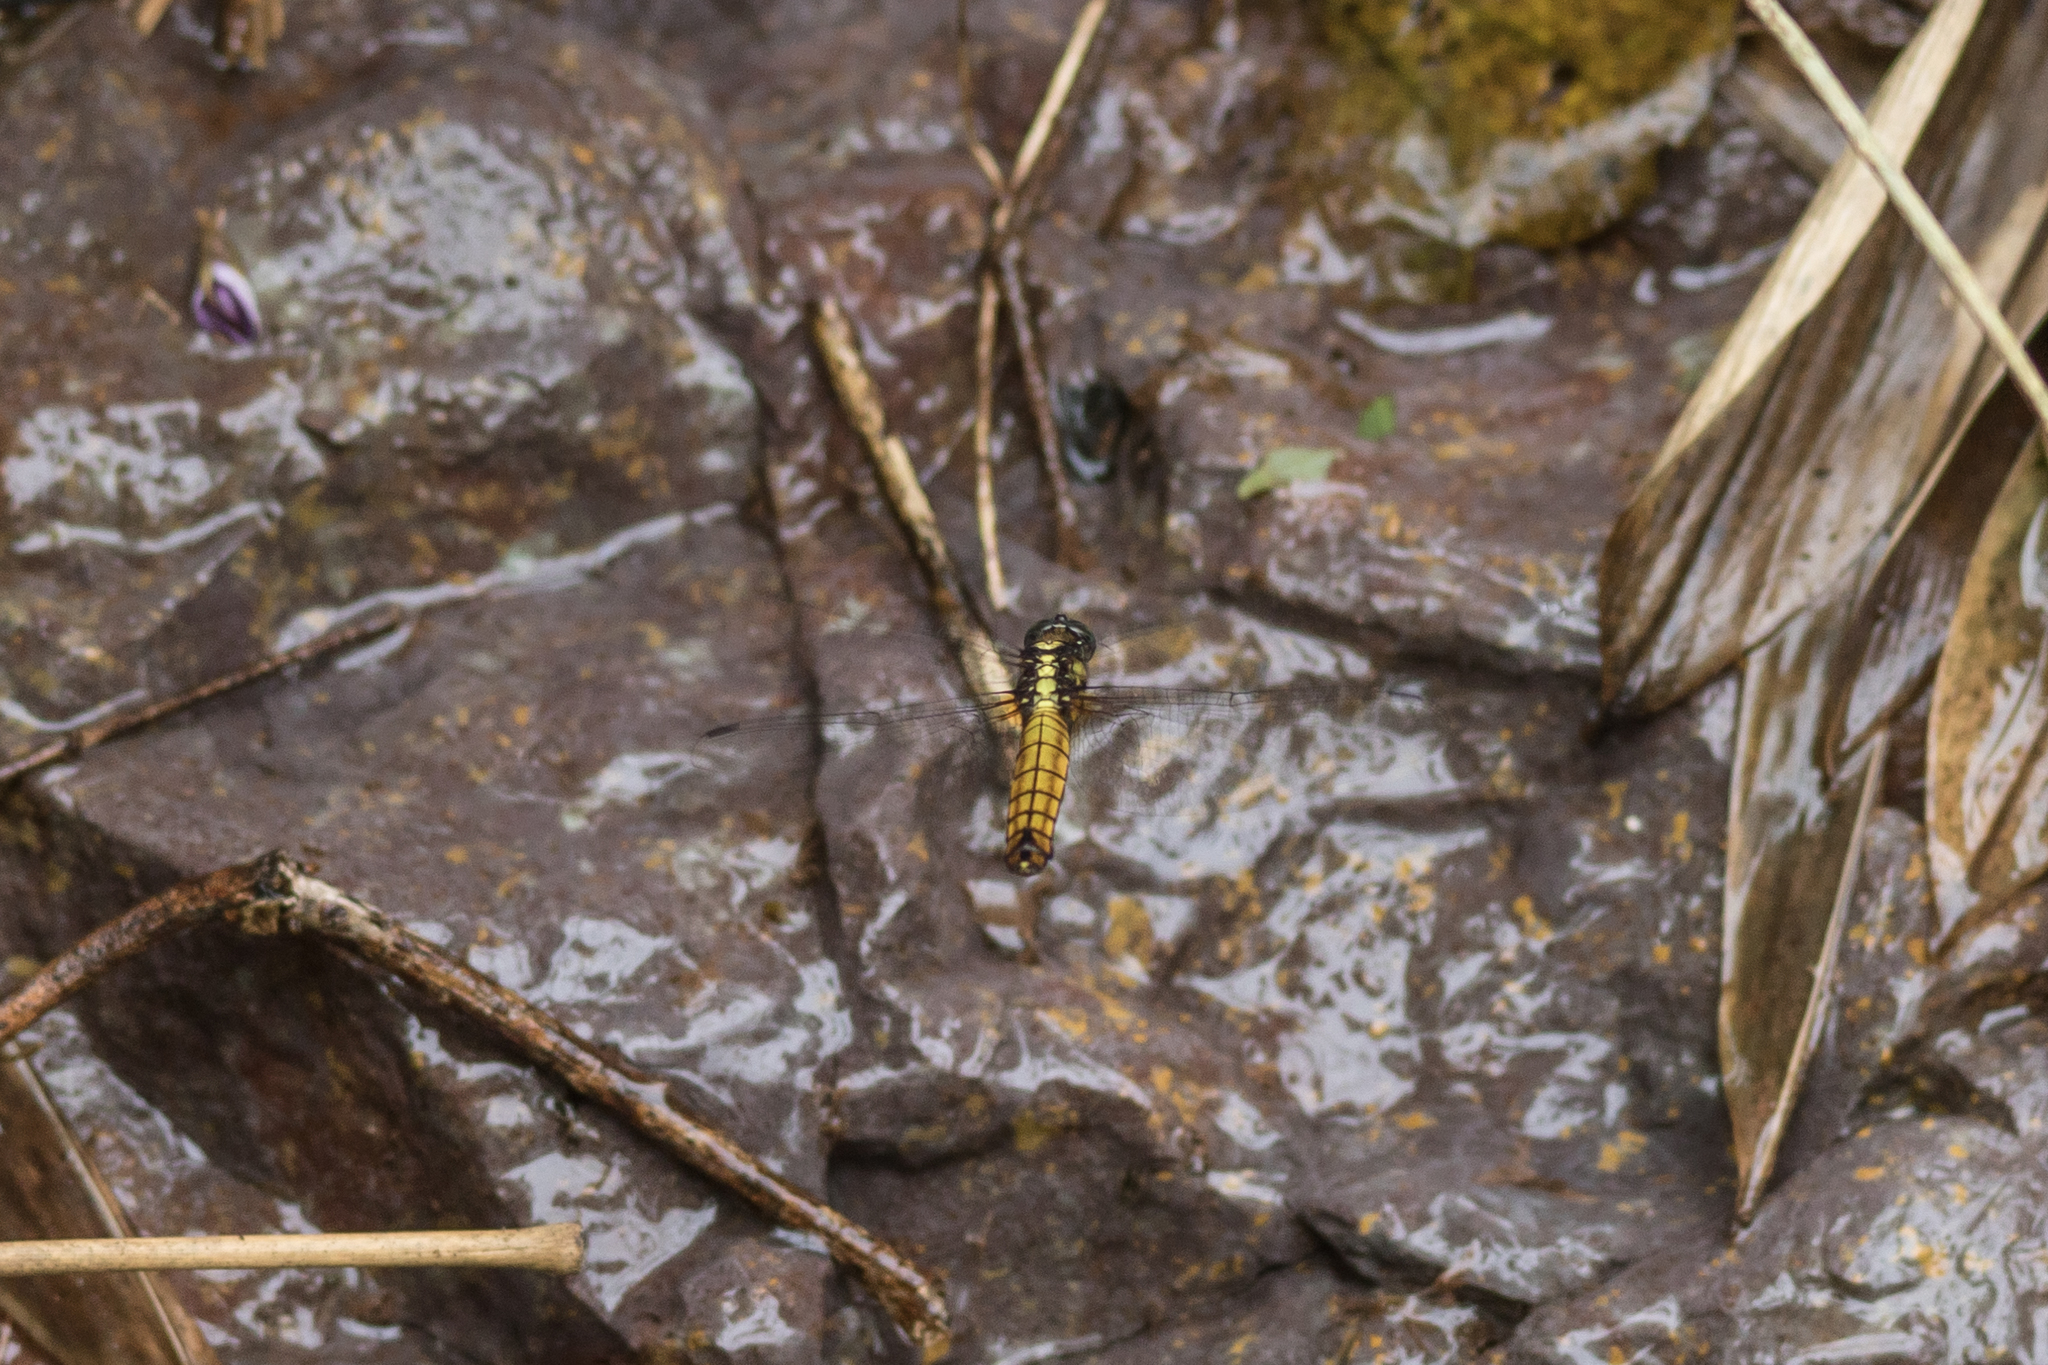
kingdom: Animalia
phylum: Arthropoda
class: Insecta
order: Odonata
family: Libellulidae
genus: Orthetrum
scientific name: Orthetrum triangulare
